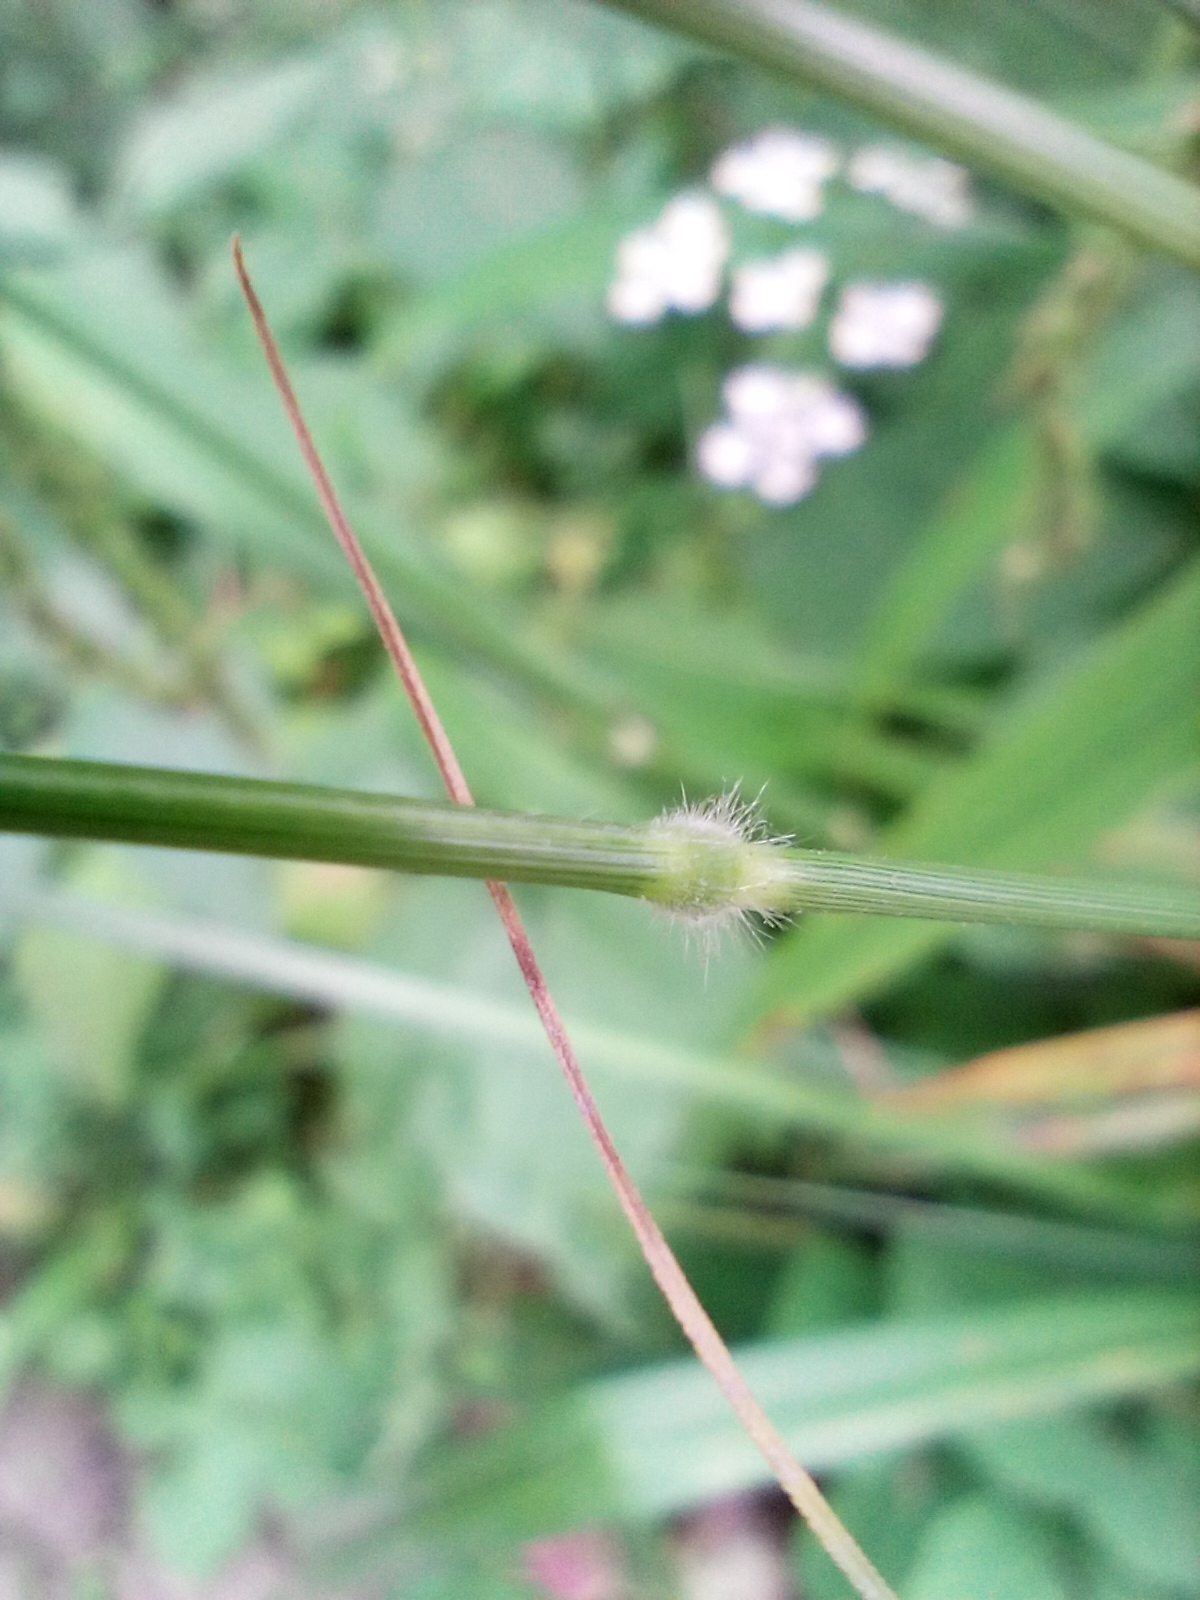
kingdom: Plantae
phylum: Tracheophyta
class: Liliopsida
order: Poales
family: Poaceae
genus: Brachypodium
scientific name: Brachypodium sylvaticum
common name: False-brome
